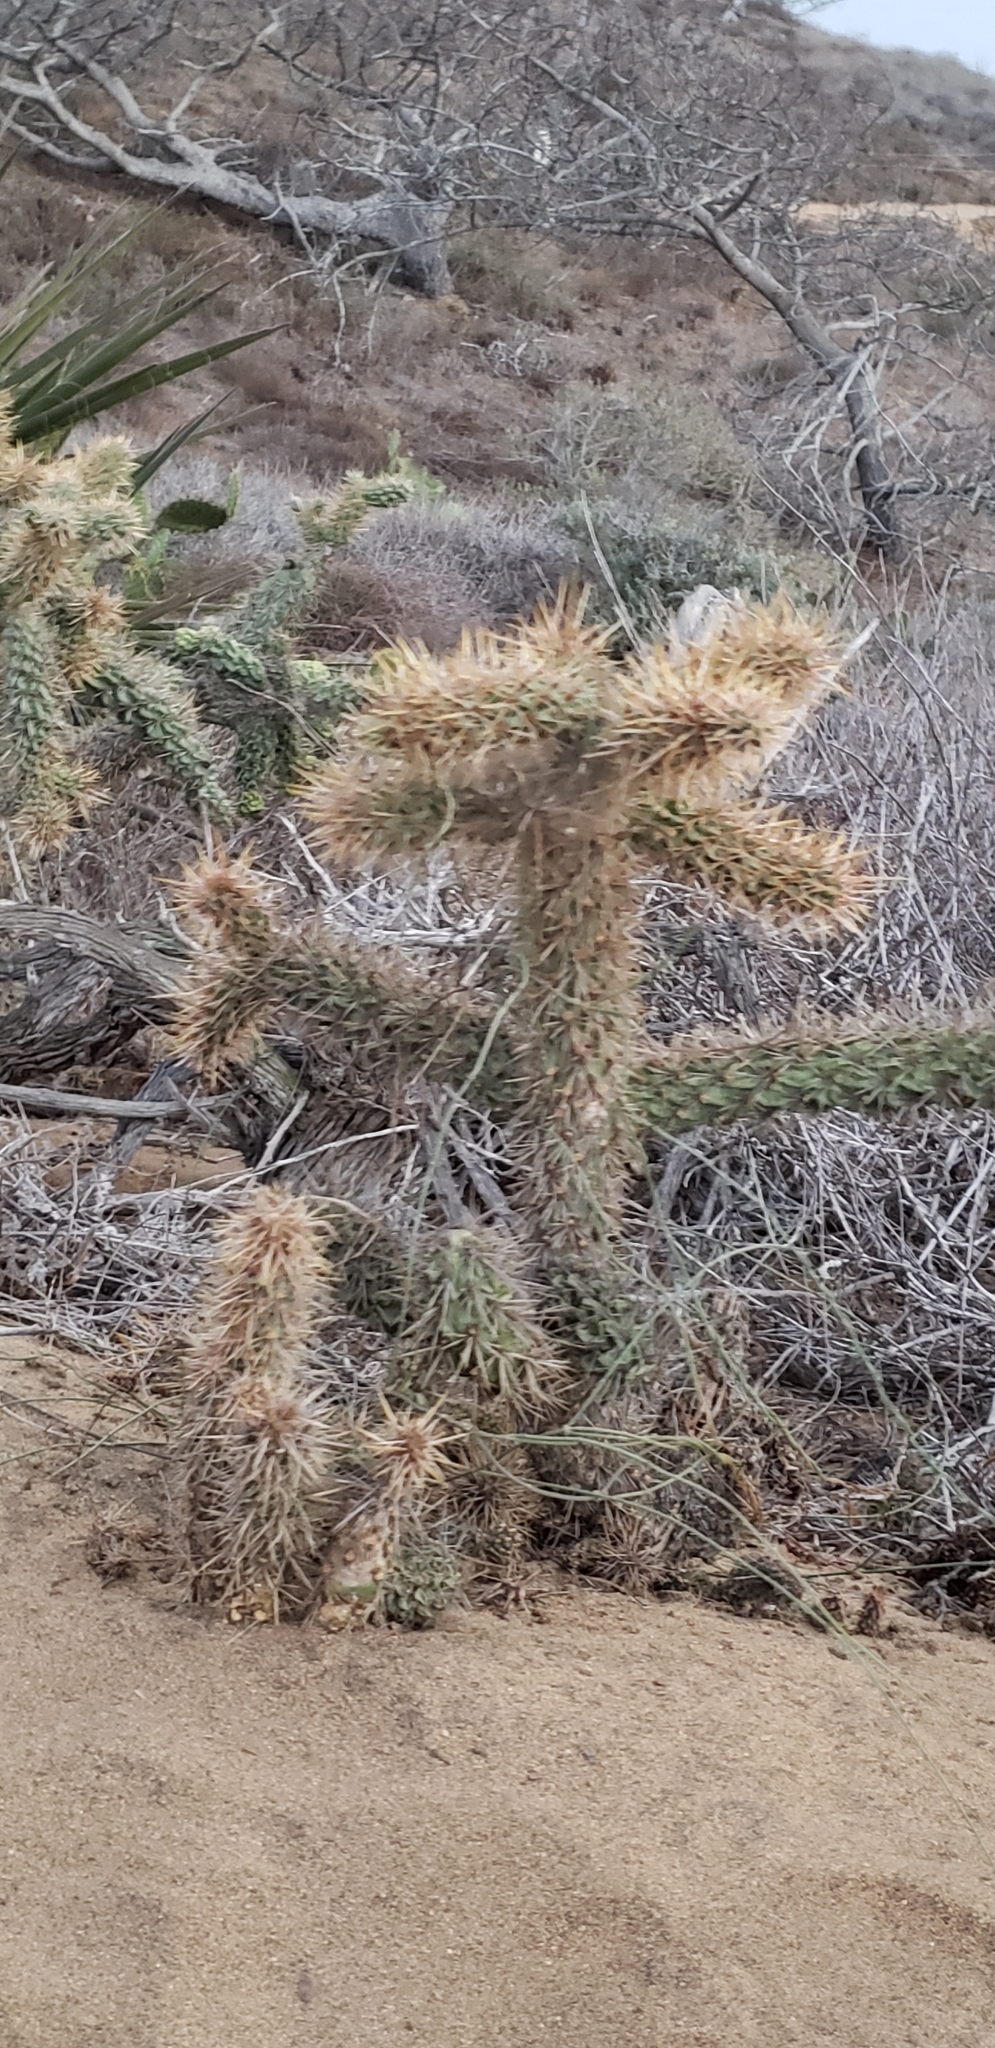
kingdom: Plantae
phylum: Tracheophyta
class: Magnoliopsida
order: Caryophyllales
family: Cactaceae
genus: Cylindropuntia
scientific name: Cylindropuntia prolifera
